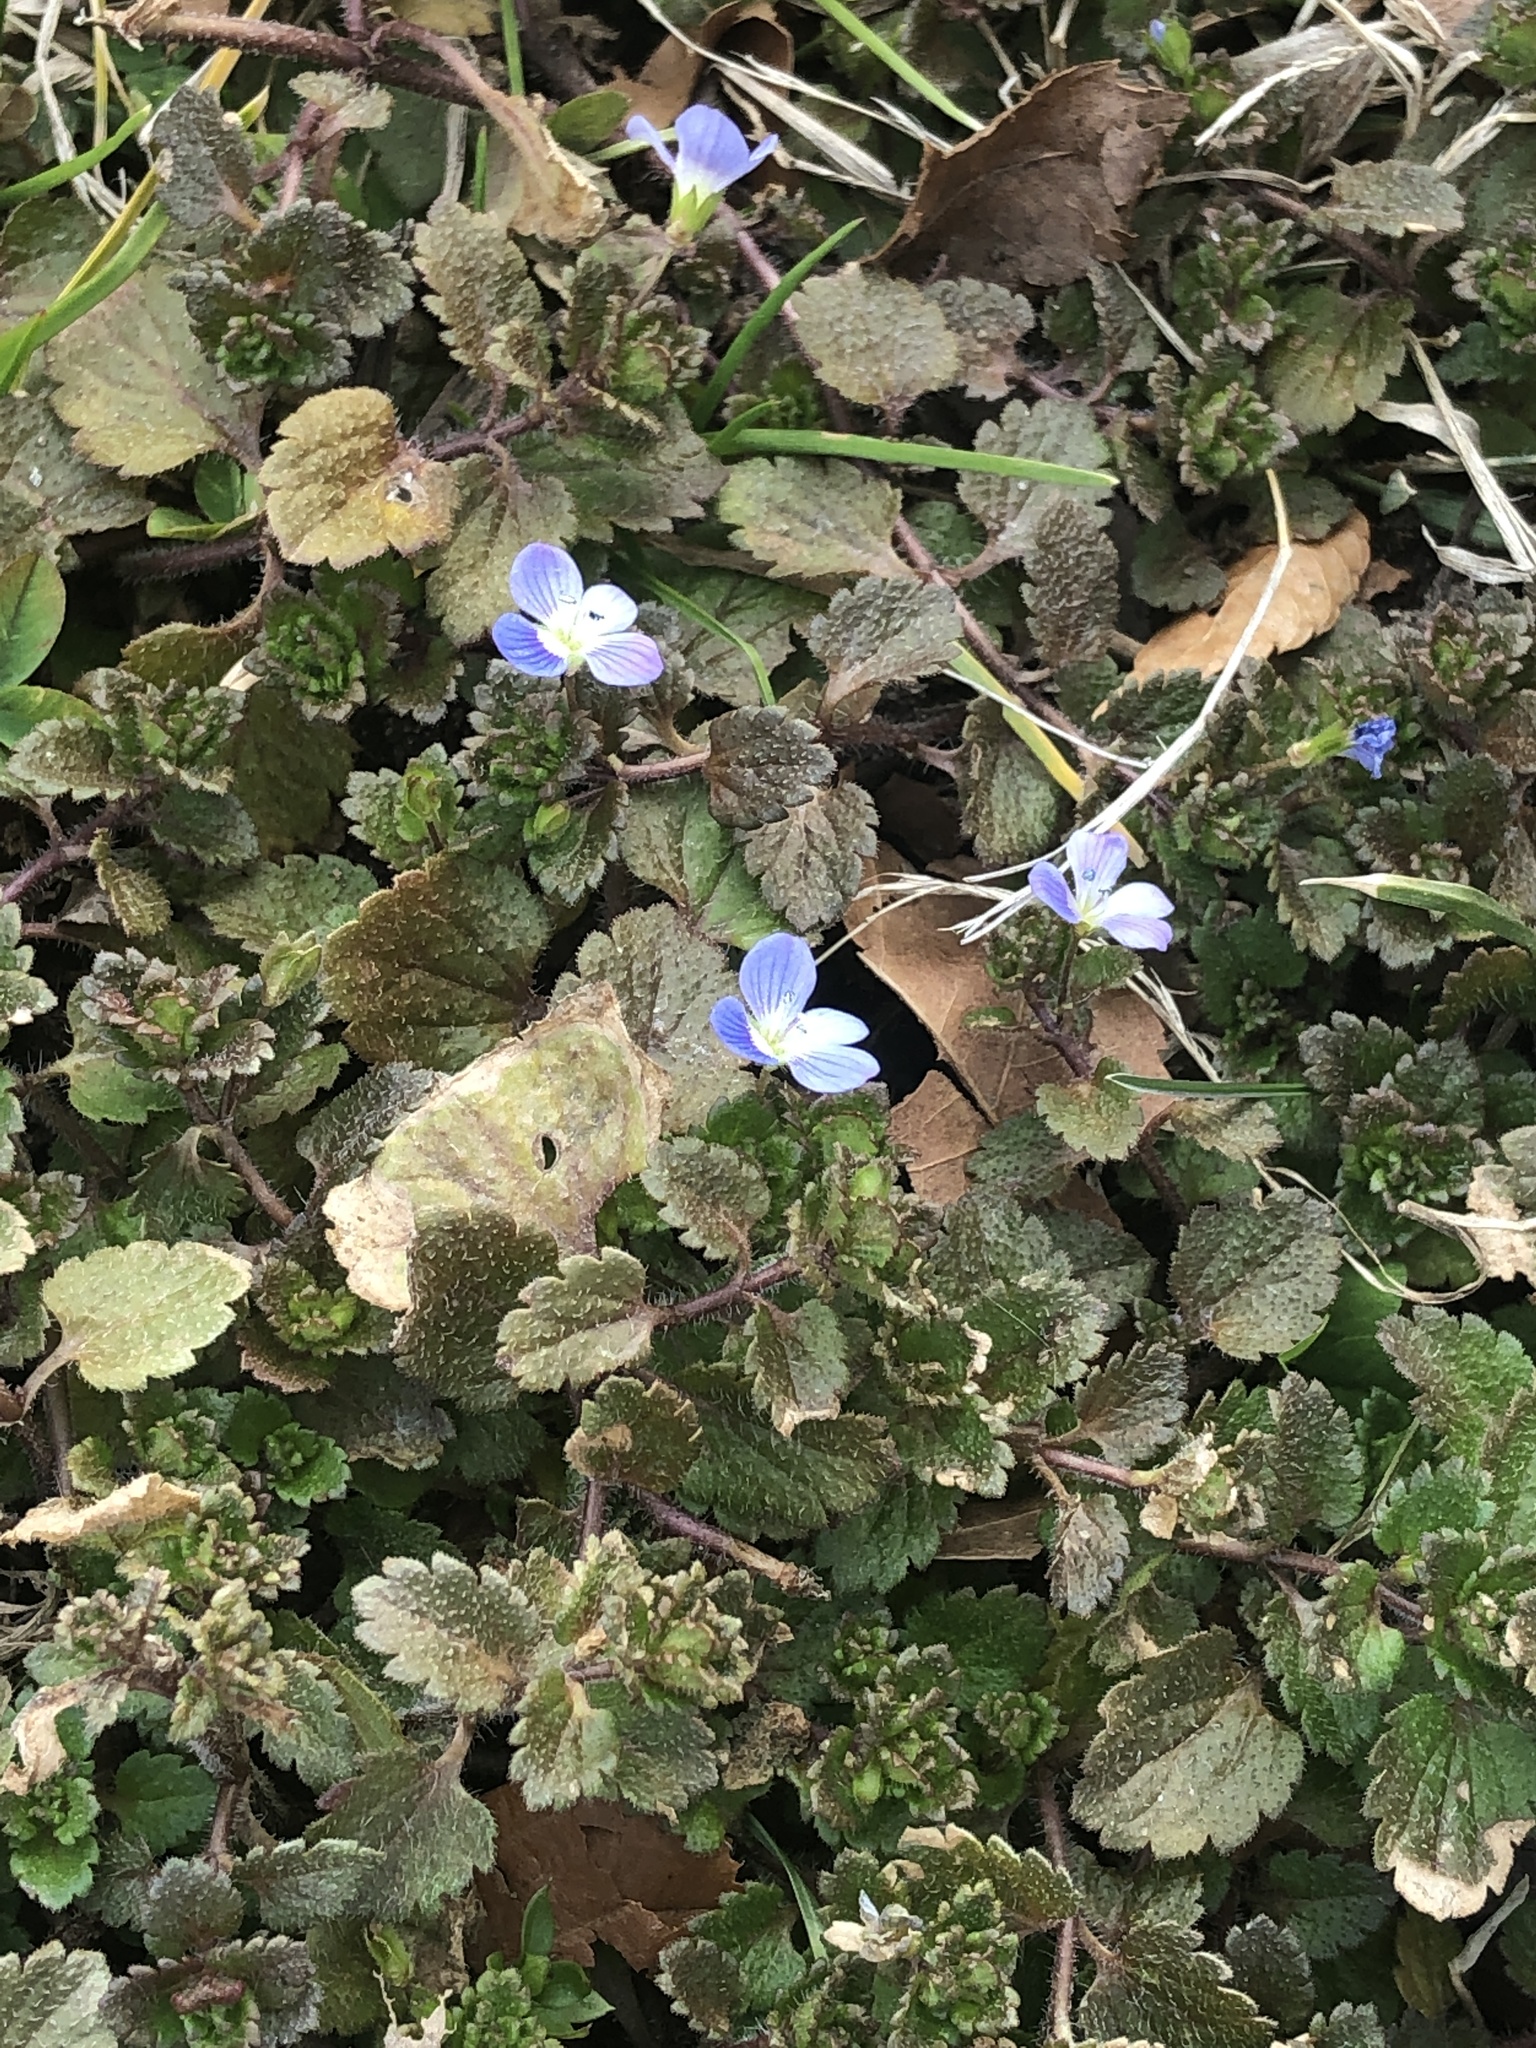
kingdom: Plantae
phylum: Tracheophyta
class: Magnoliopsida
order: Lamiales
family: Plantaginaceae
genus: Veronica
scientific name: Veronica persica
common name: Common field-speedwell
